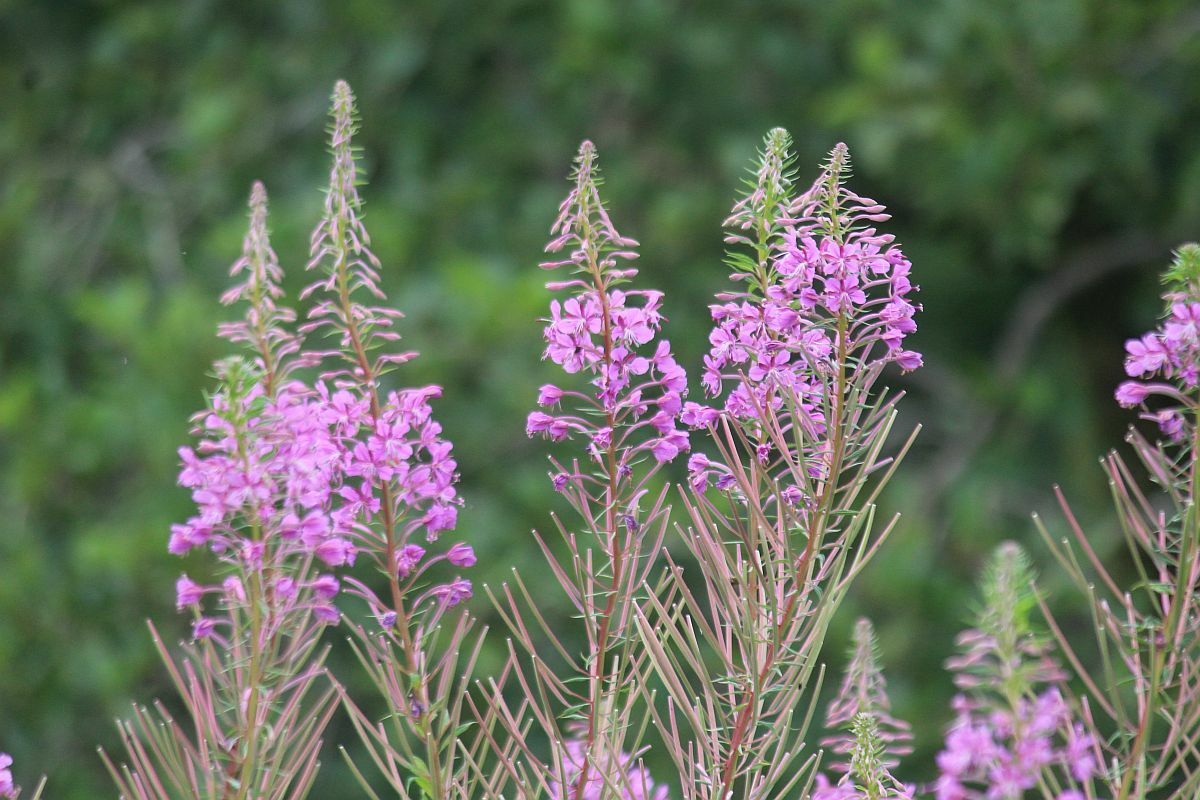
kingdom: Plantae
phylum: Tracheophyta
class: Magnoliopsida
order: Myrtales
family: Onagraceae
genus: Chamaenerion
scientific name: Chamaenerion angustifolium
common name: Fireweed
